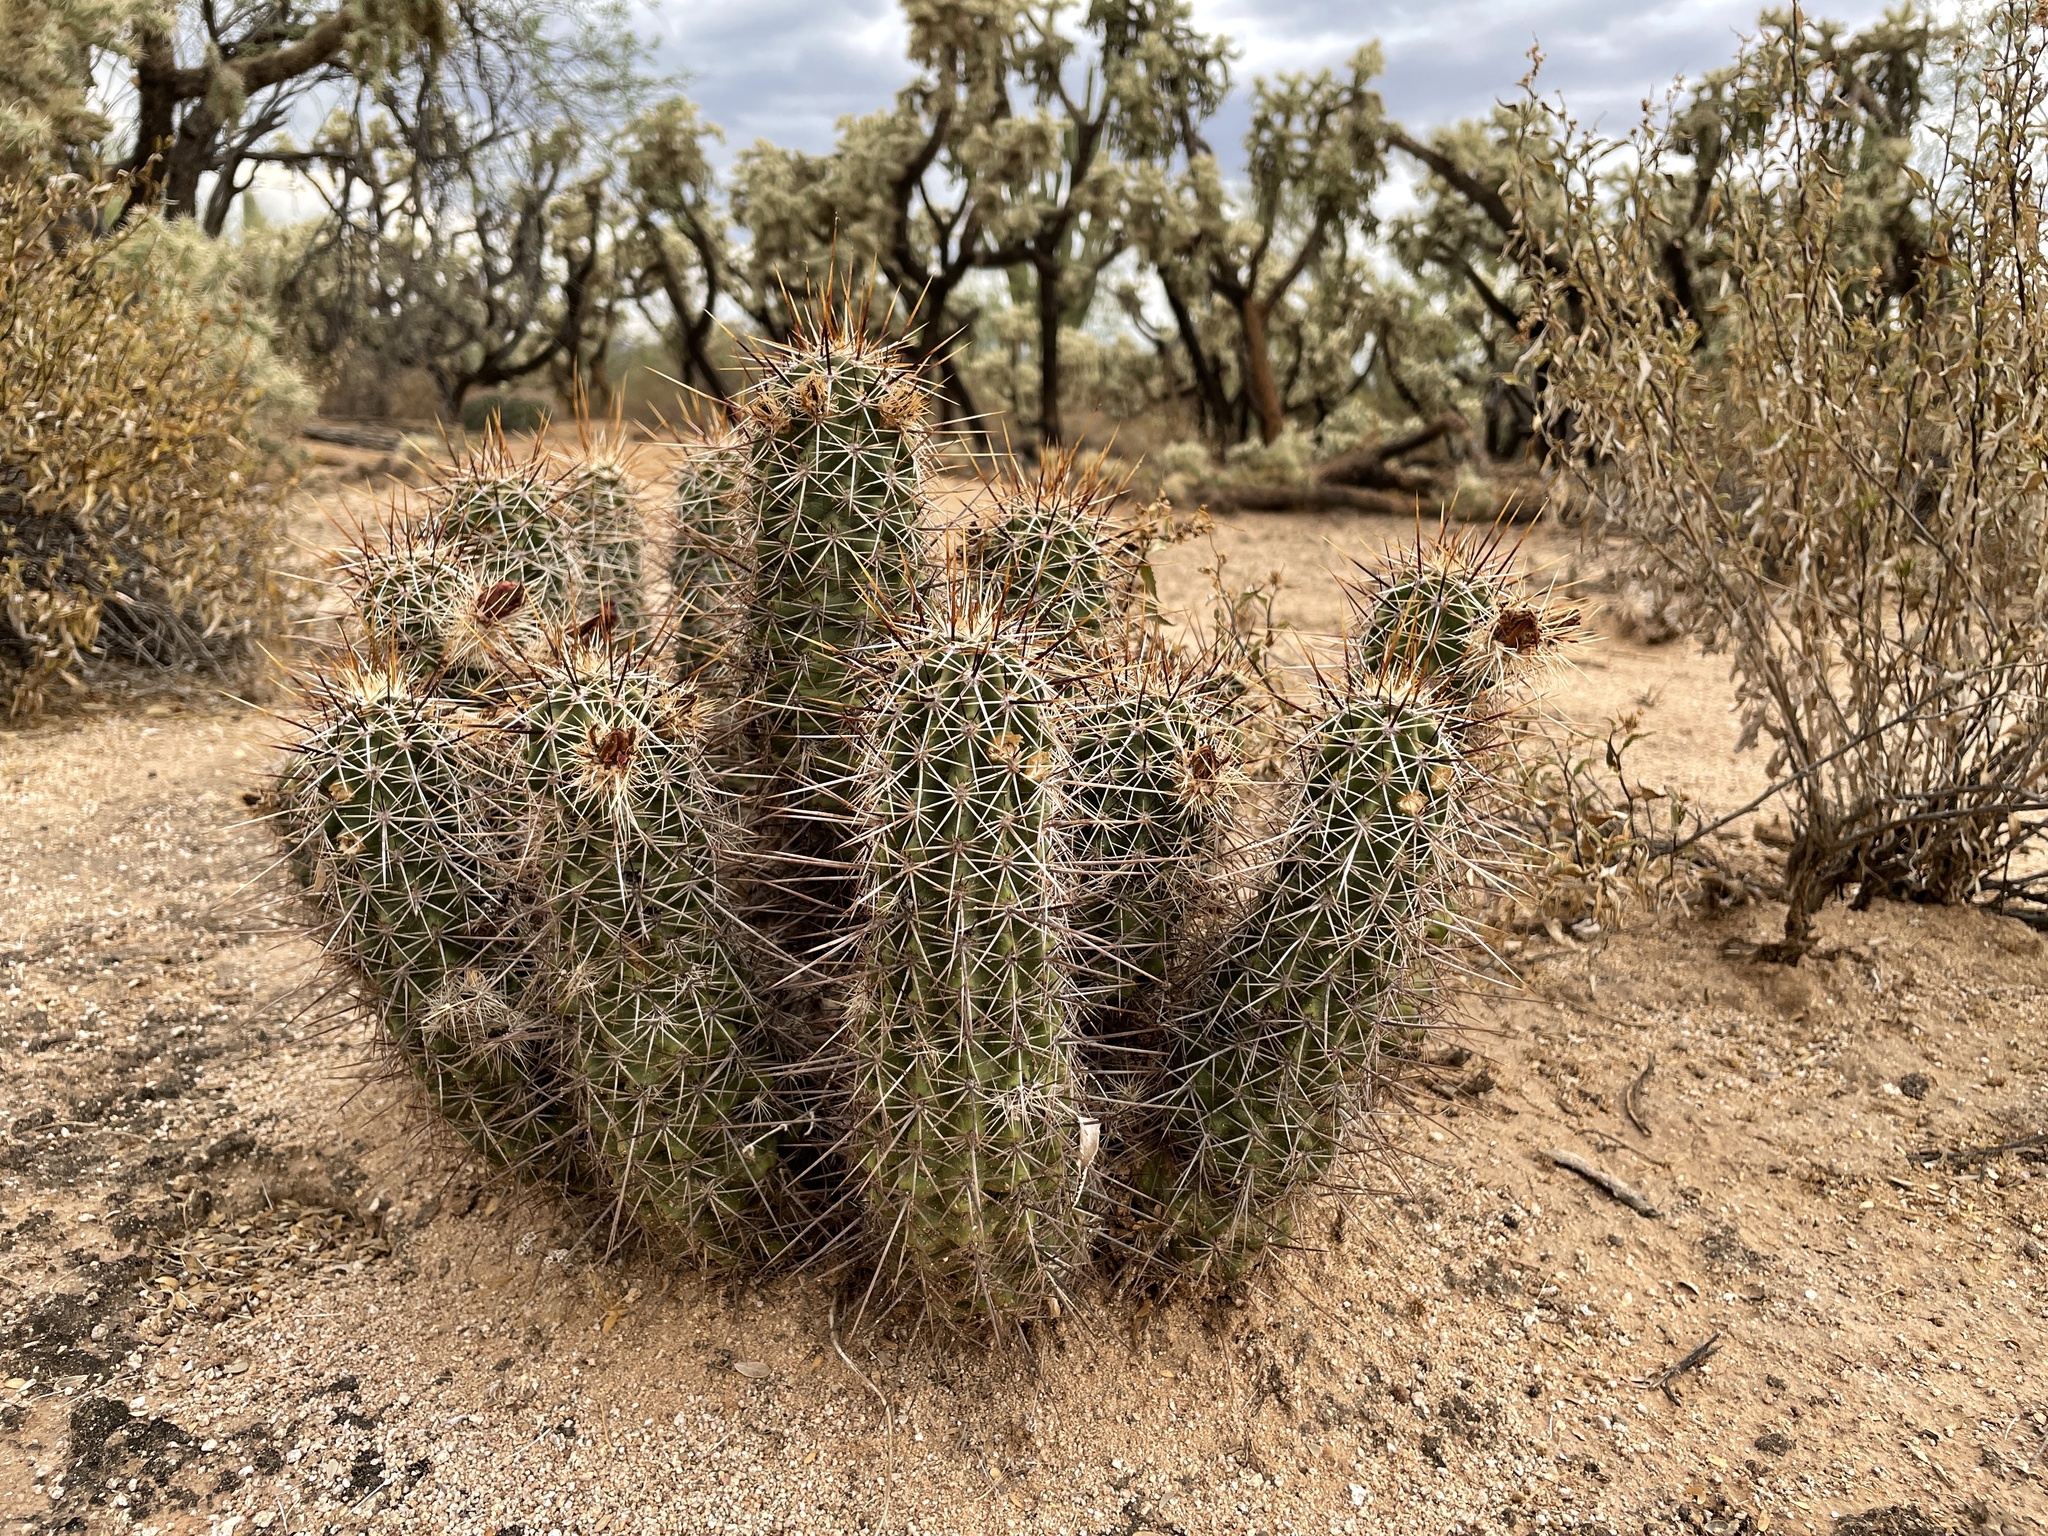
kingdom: Plantae
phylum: Tracheophyta
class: Magnoliopsida
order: Caryophyllales
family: Cactaceae
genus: Echinocereus
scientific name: Echinocereus fasciculatus
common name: Bundle hedgehog
